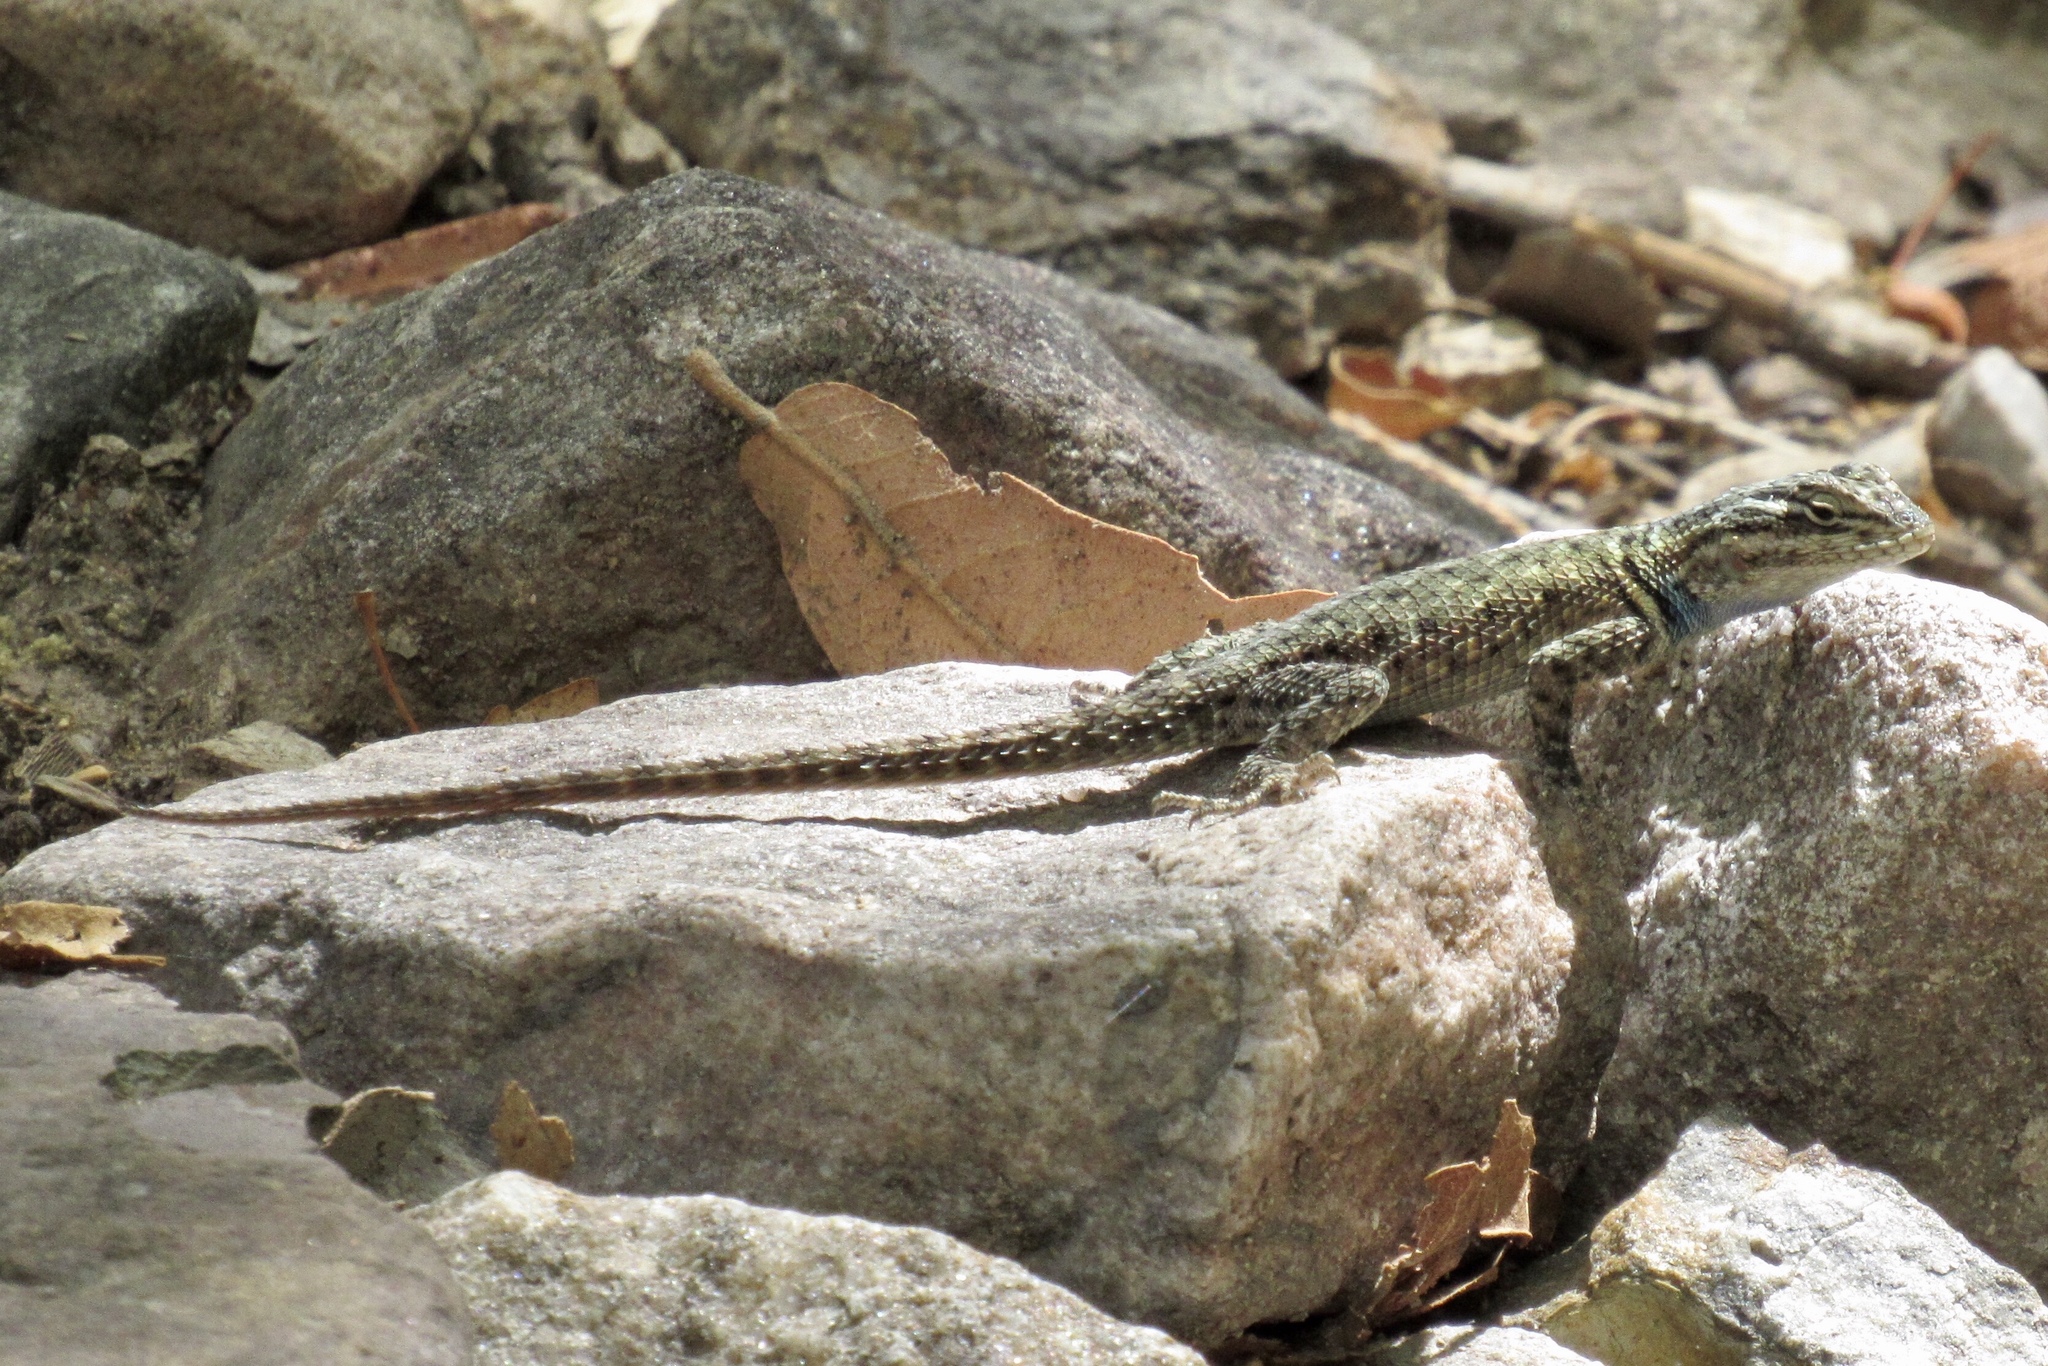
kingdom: Animalia
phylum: Chordata
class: Squamata
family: Phrynosomatidae
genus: Sceloporus
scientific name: Sceloporus jarrovii
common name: Yarrow's spiny lizard
